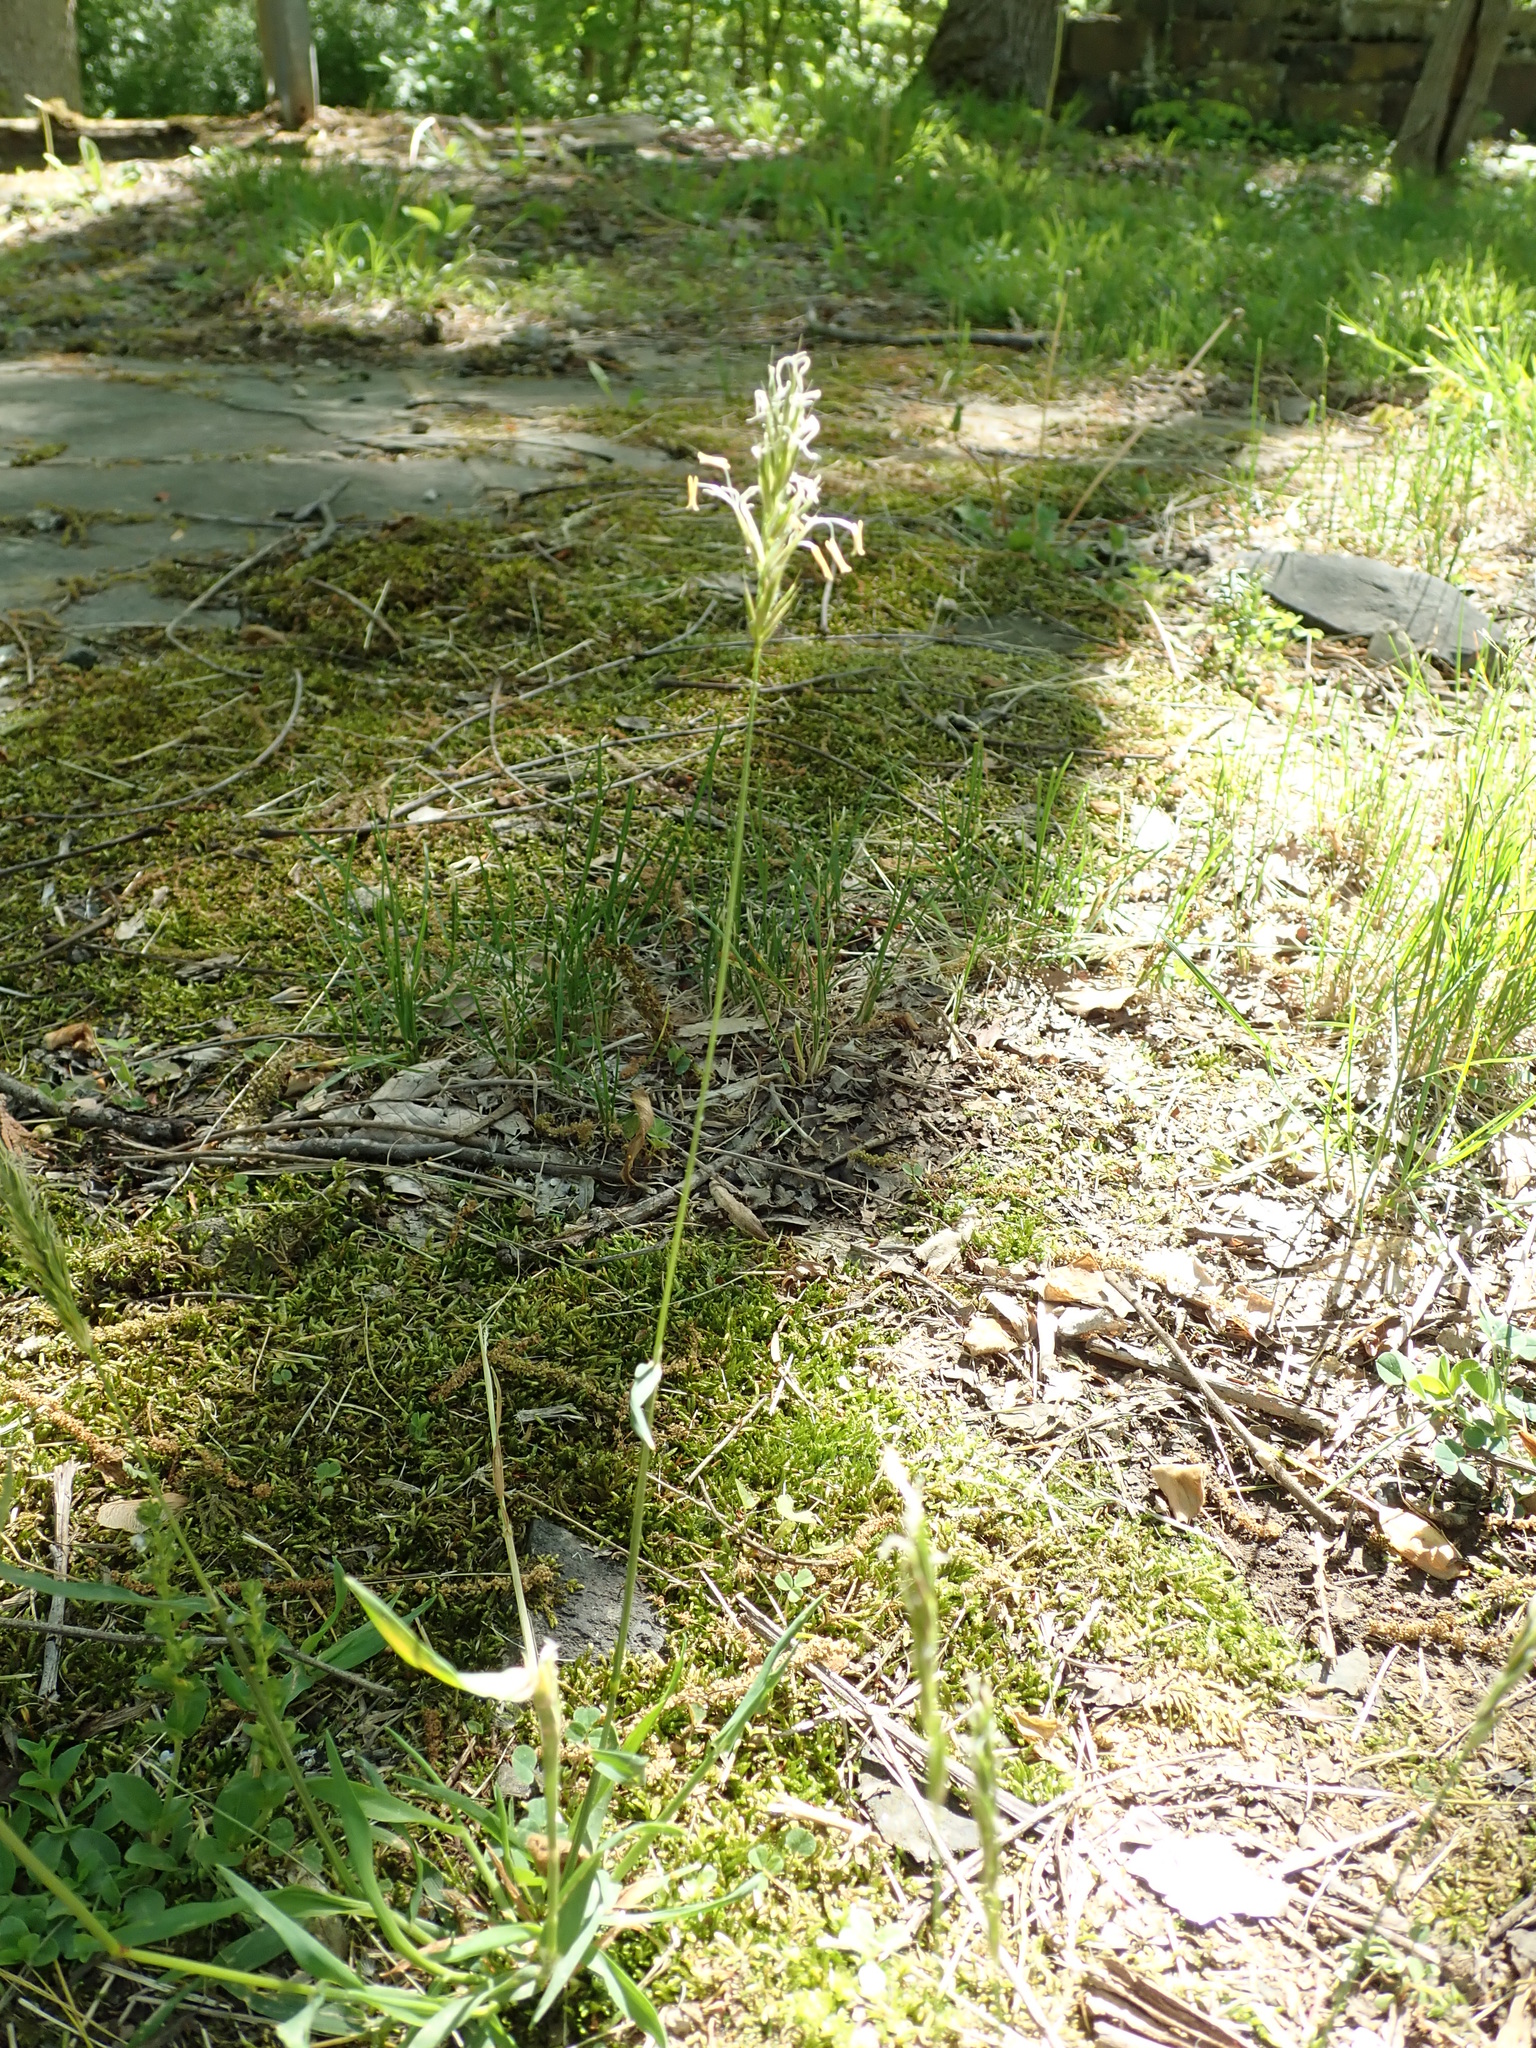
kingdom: Plantae
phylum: Tracheophyta
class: Liliopsida
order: Poales
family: Poaceae
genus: Anthoxanthum
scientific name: Anthoxanthum odoratum
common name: Sweet vernalgrass
